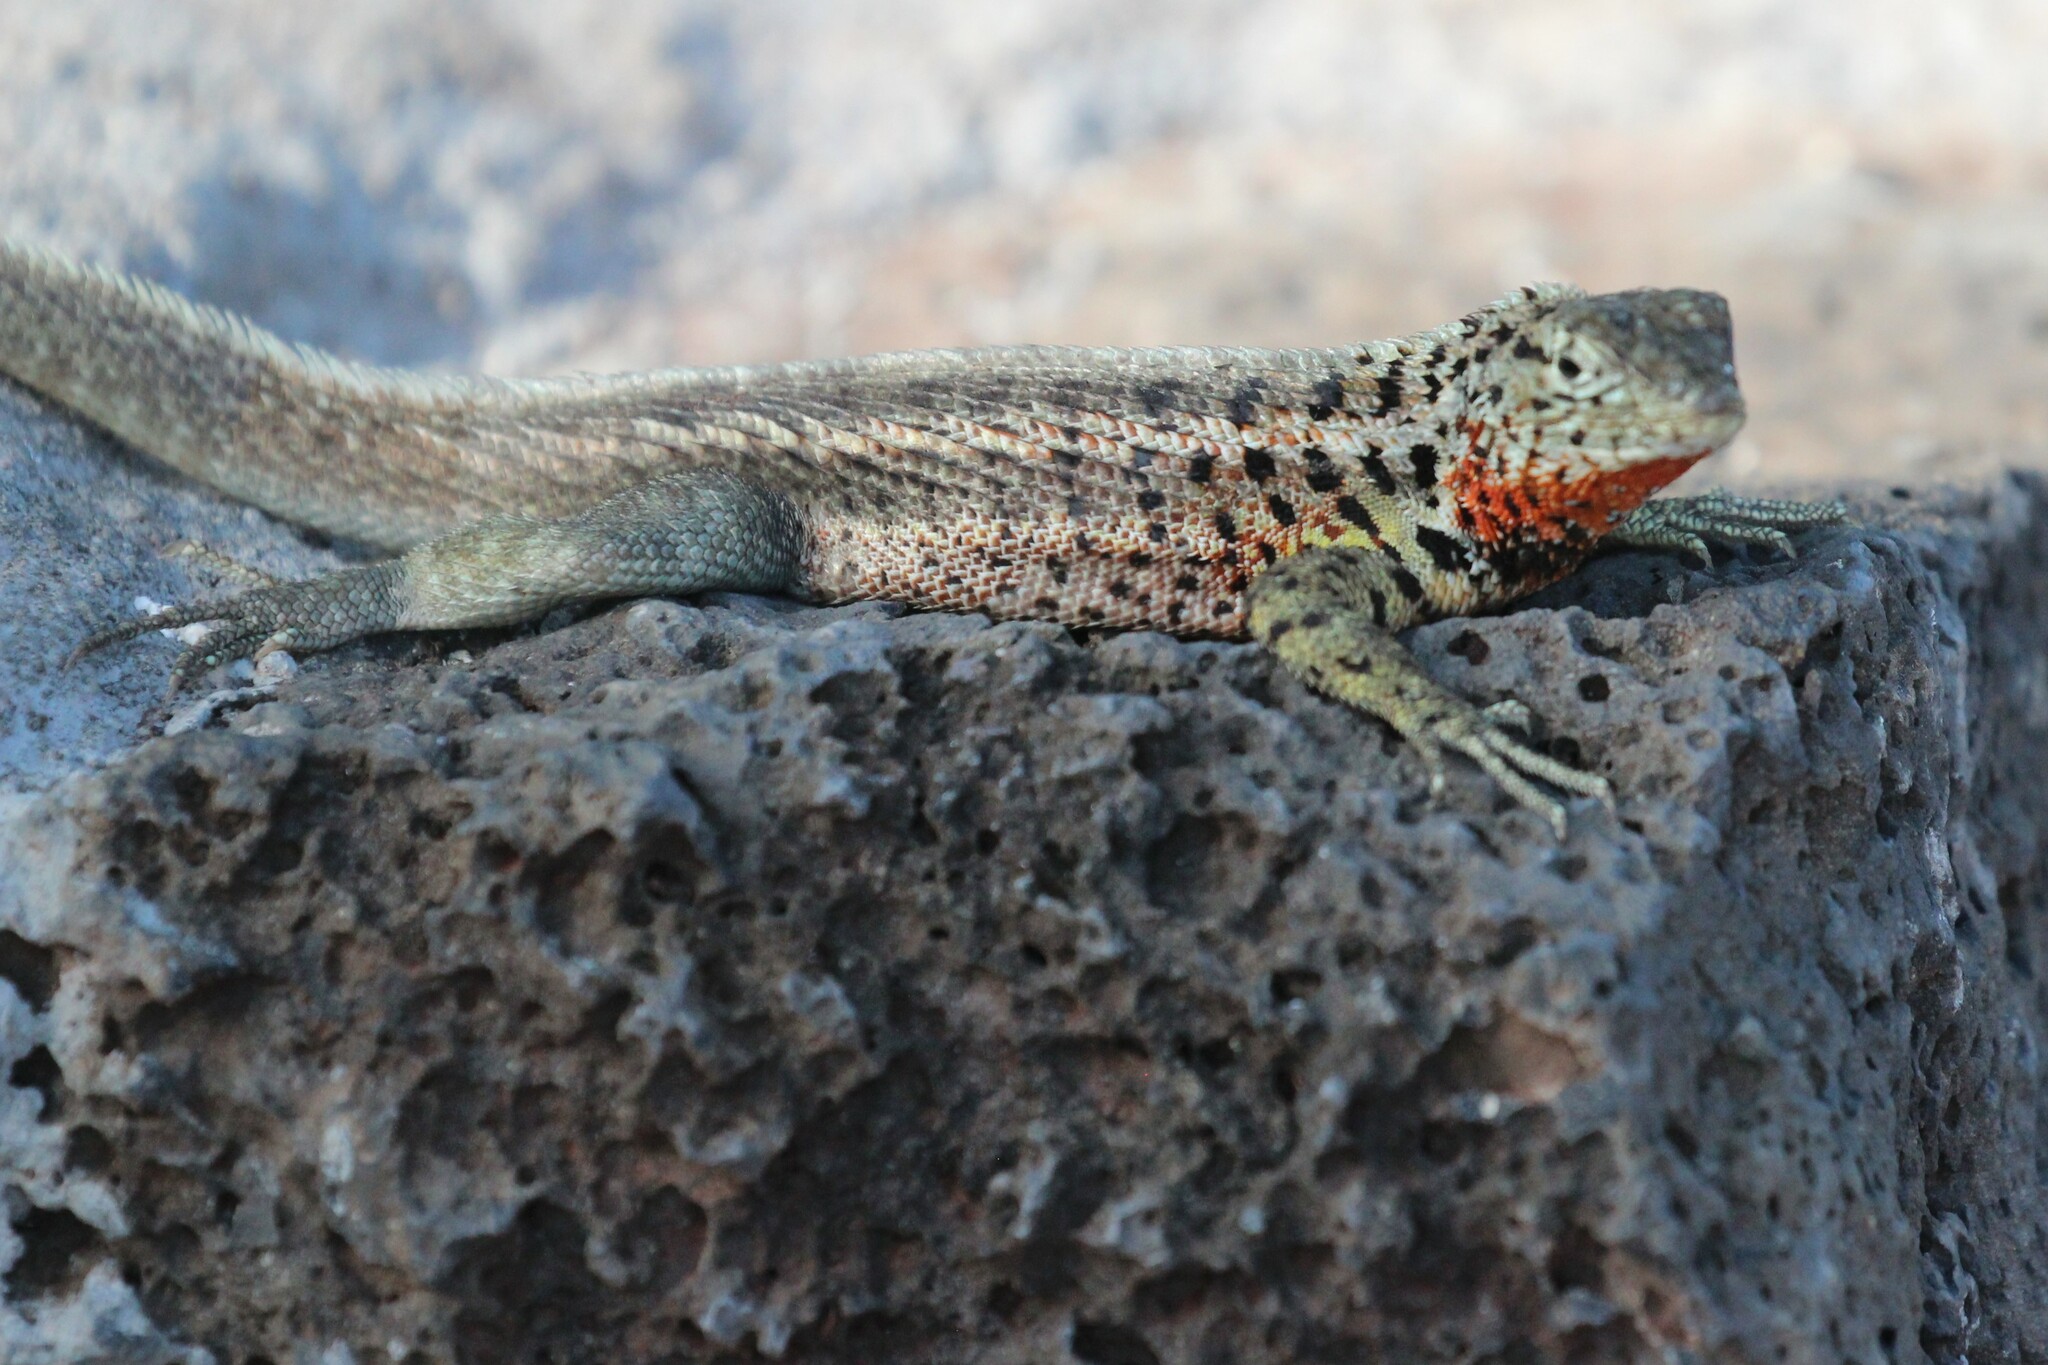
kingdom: Animalia
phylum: Chordata
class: Squamata
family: Tropiduridae
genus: Microlophus
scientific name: Microlophus indefatigabilis
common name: Galapagos lava lizard
